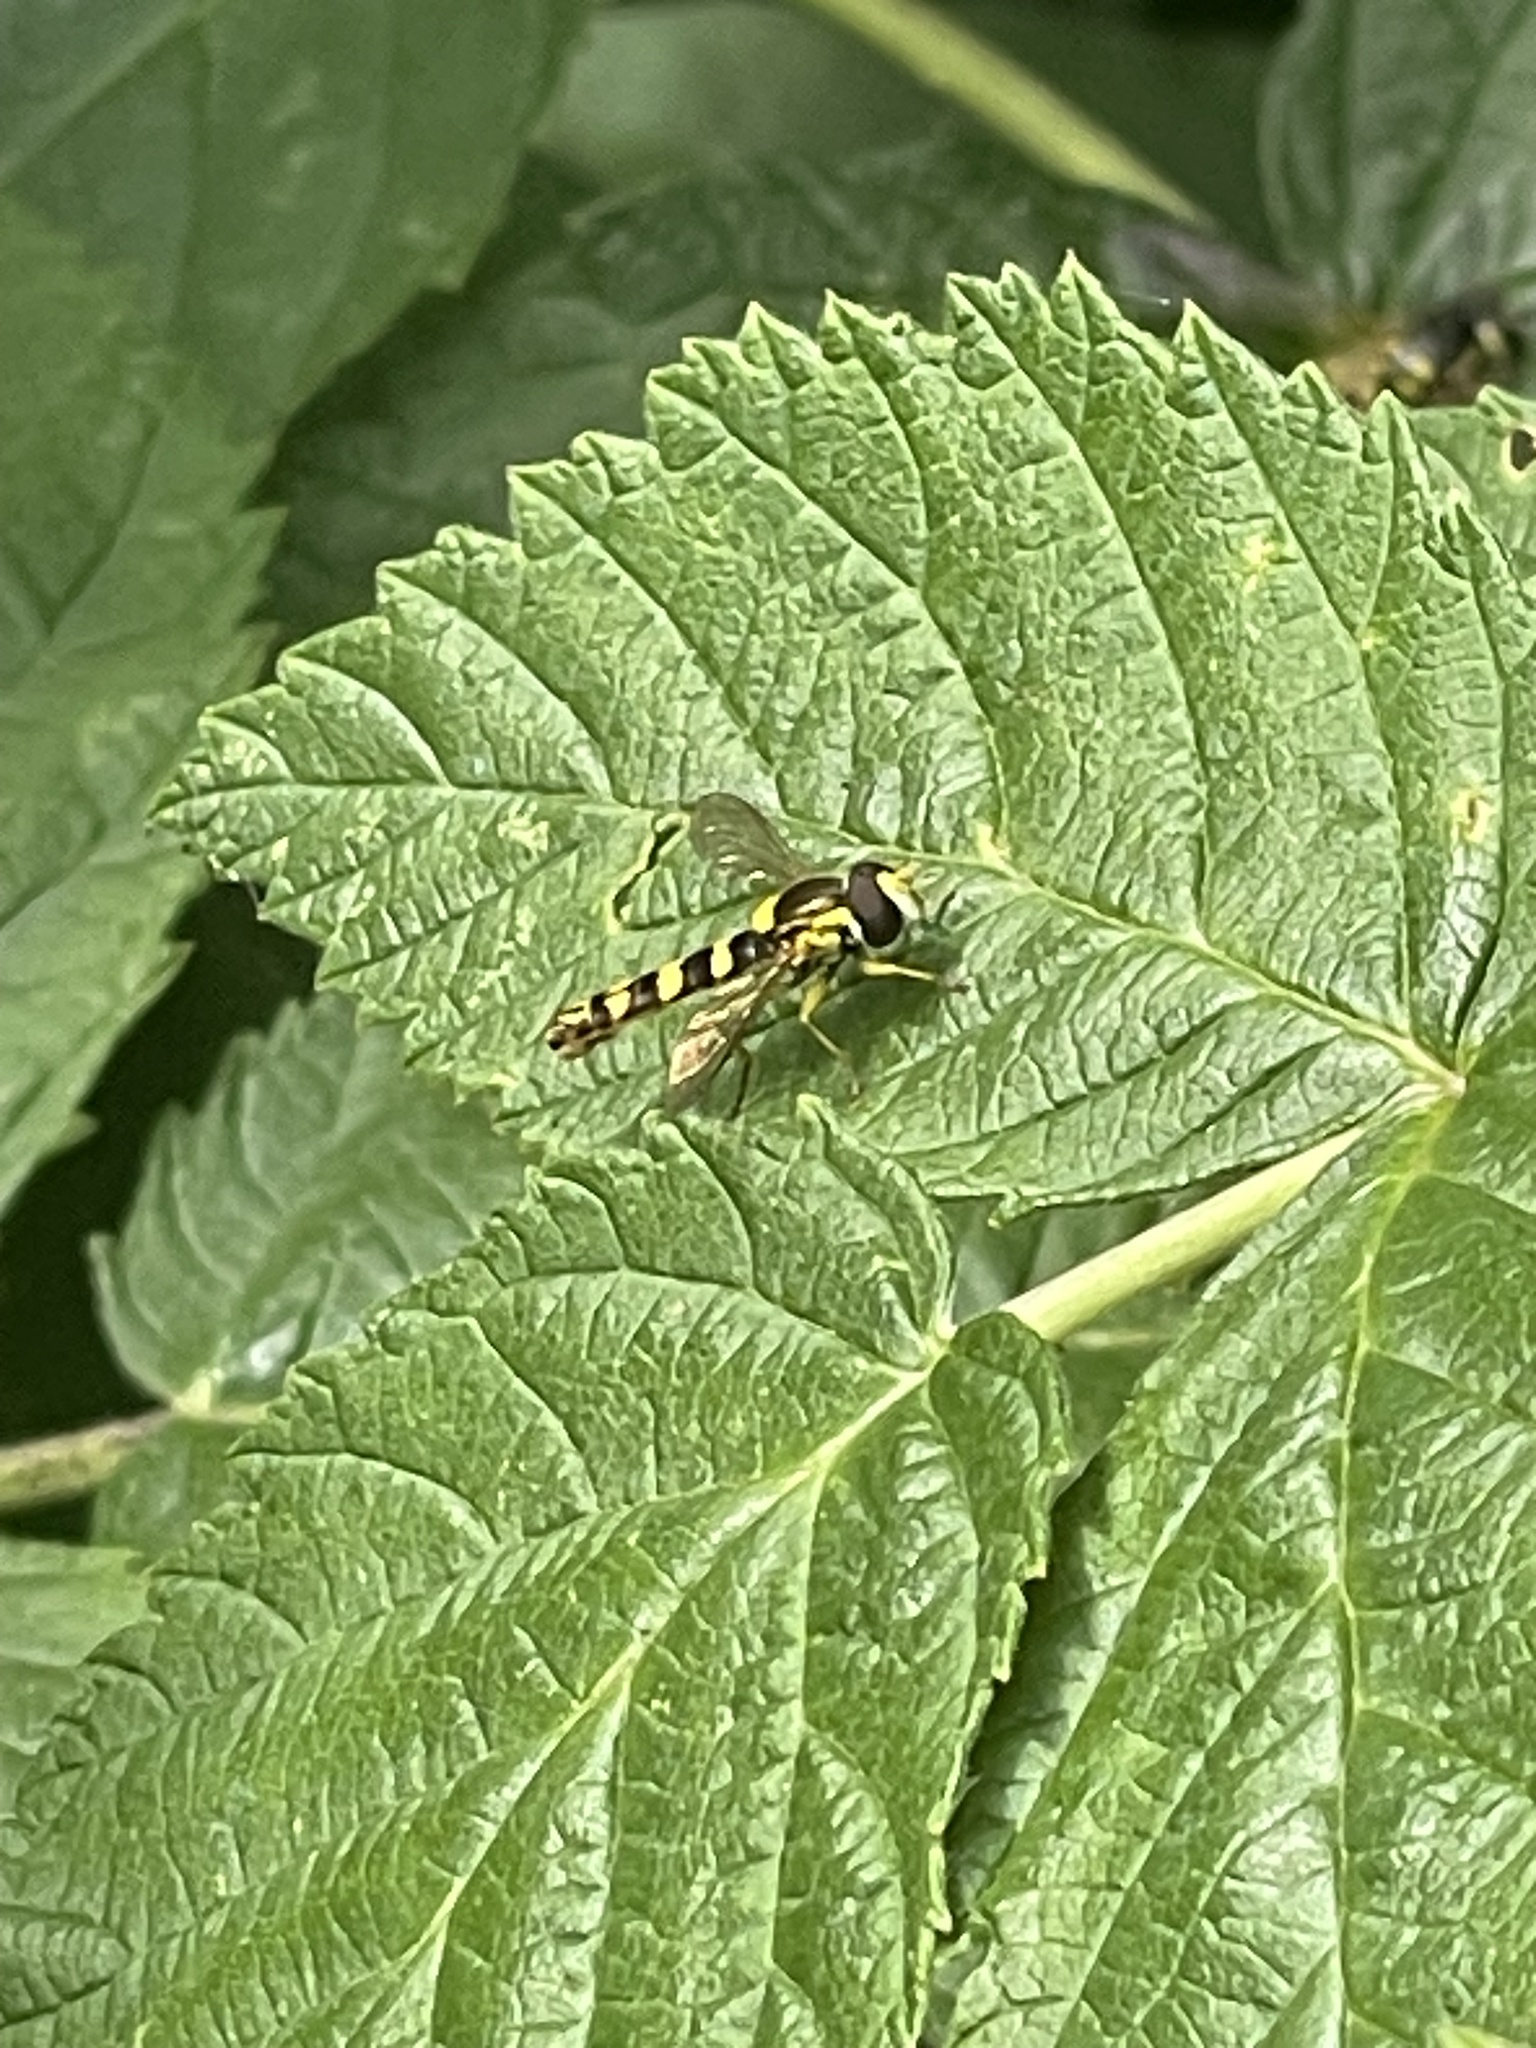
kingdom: Animalia
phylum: Arthropoda
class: Insecta
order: Diptera
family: Syrphidae
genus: Sphaerophoria
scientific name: Sphaerophoria scripta
